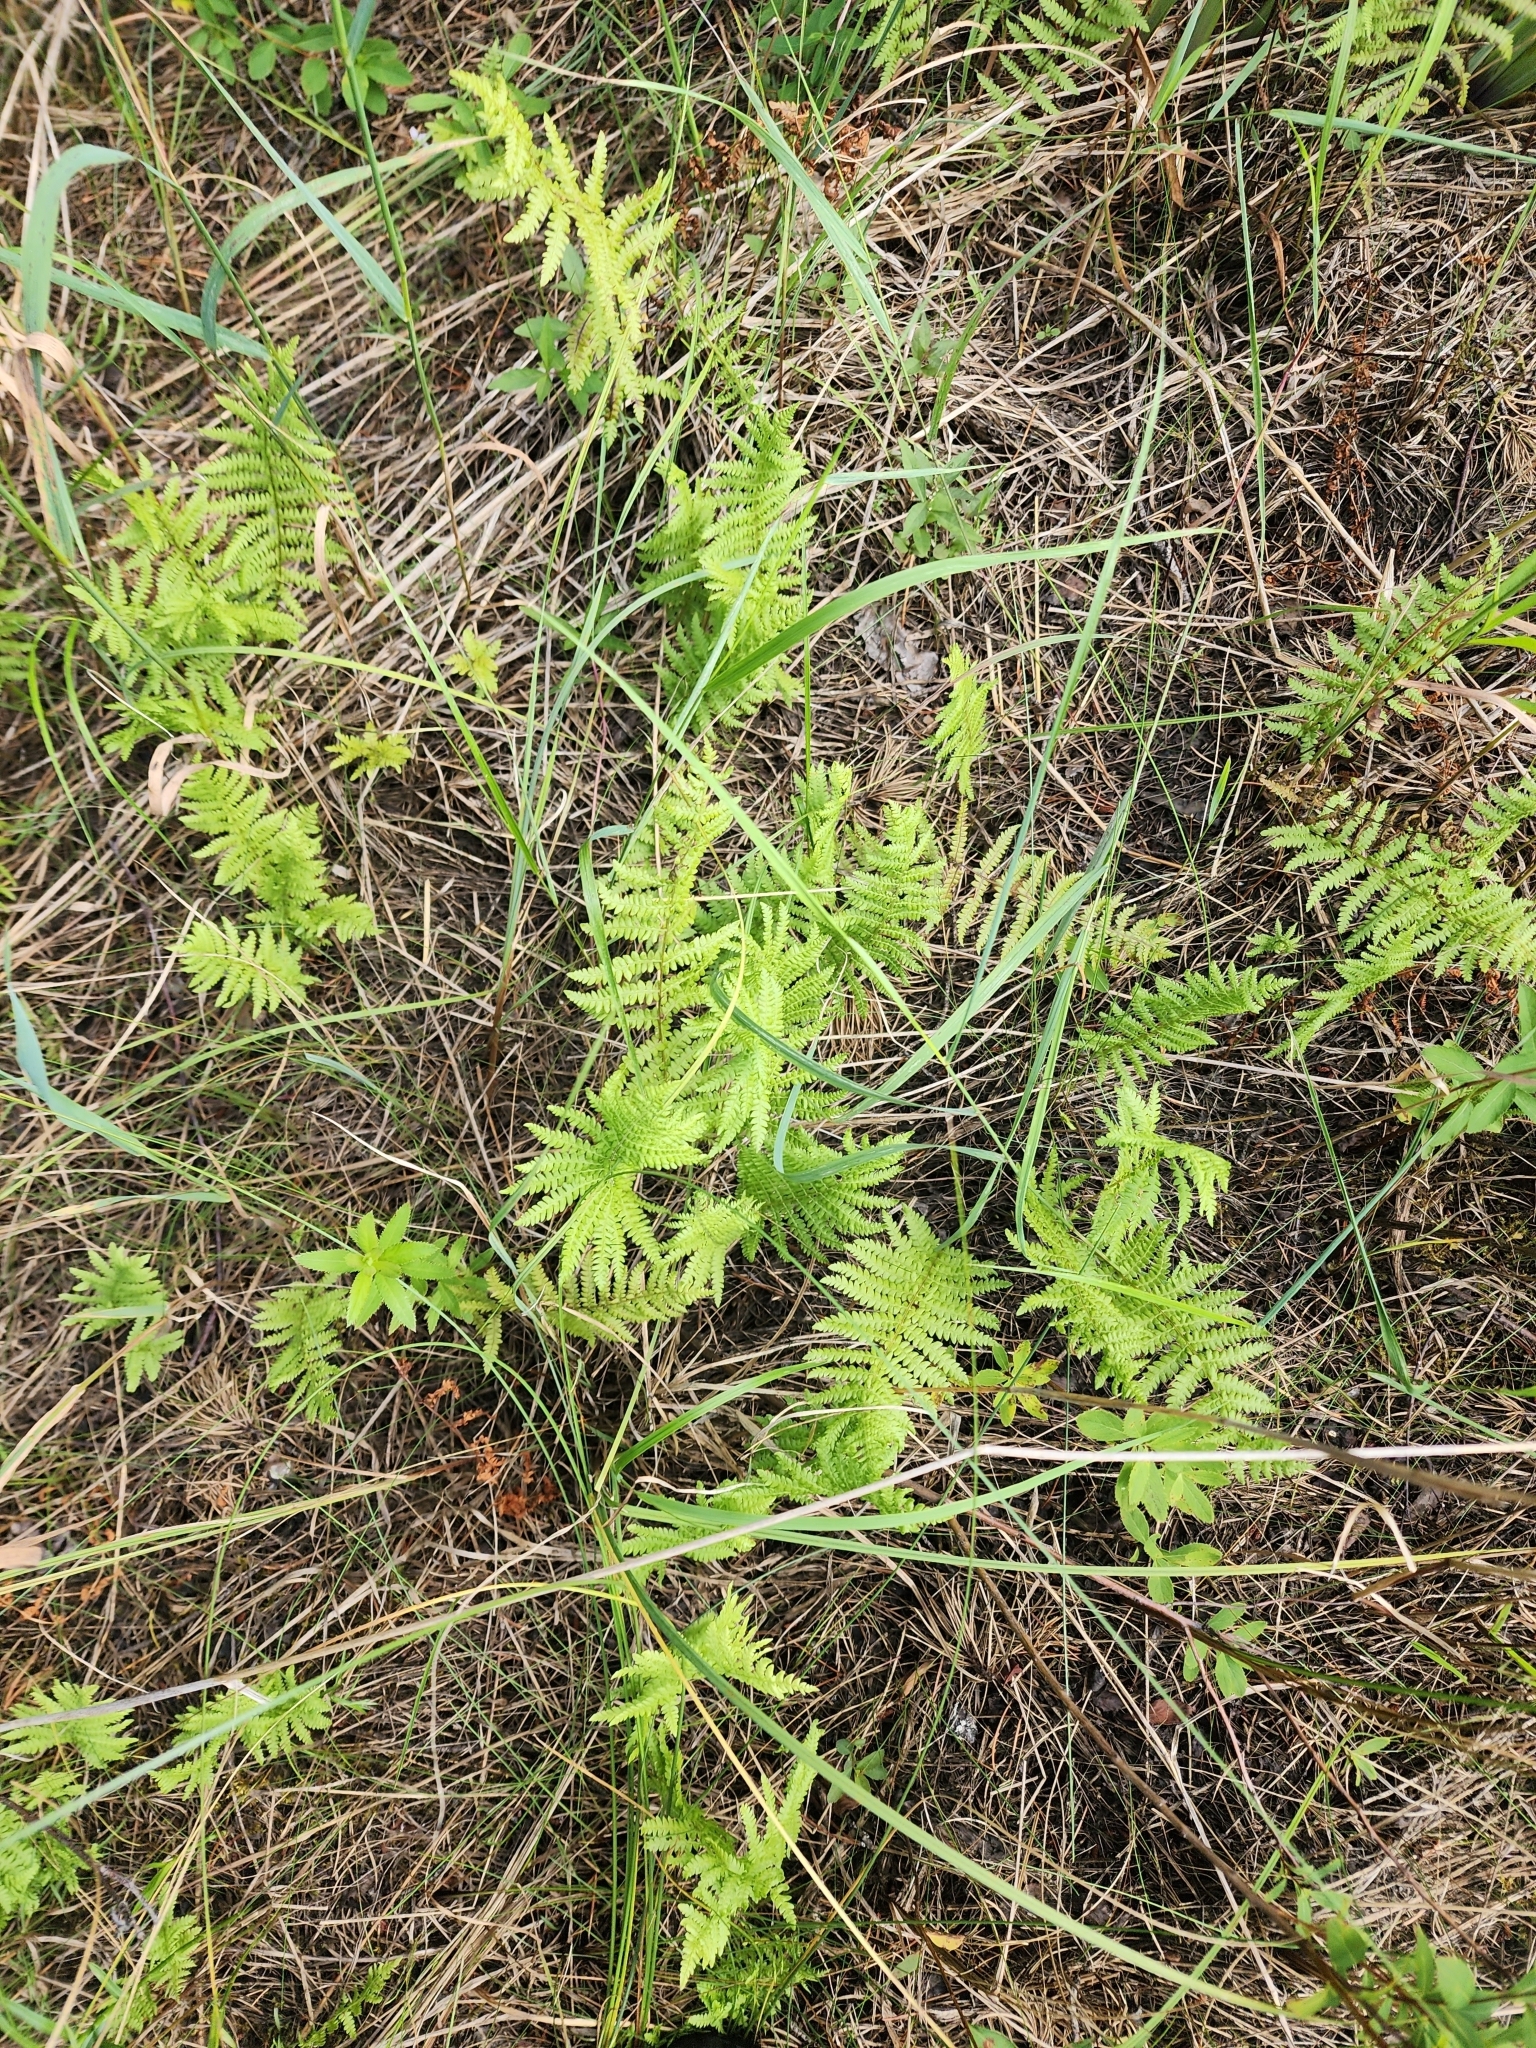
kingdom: Plantae
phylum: Tracheophyta
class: Polypodiopsida
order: Polypodiales
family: Thelypteridaceae
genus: Thelypteris
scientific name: Thelypteris palustris
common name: Marsh fern
